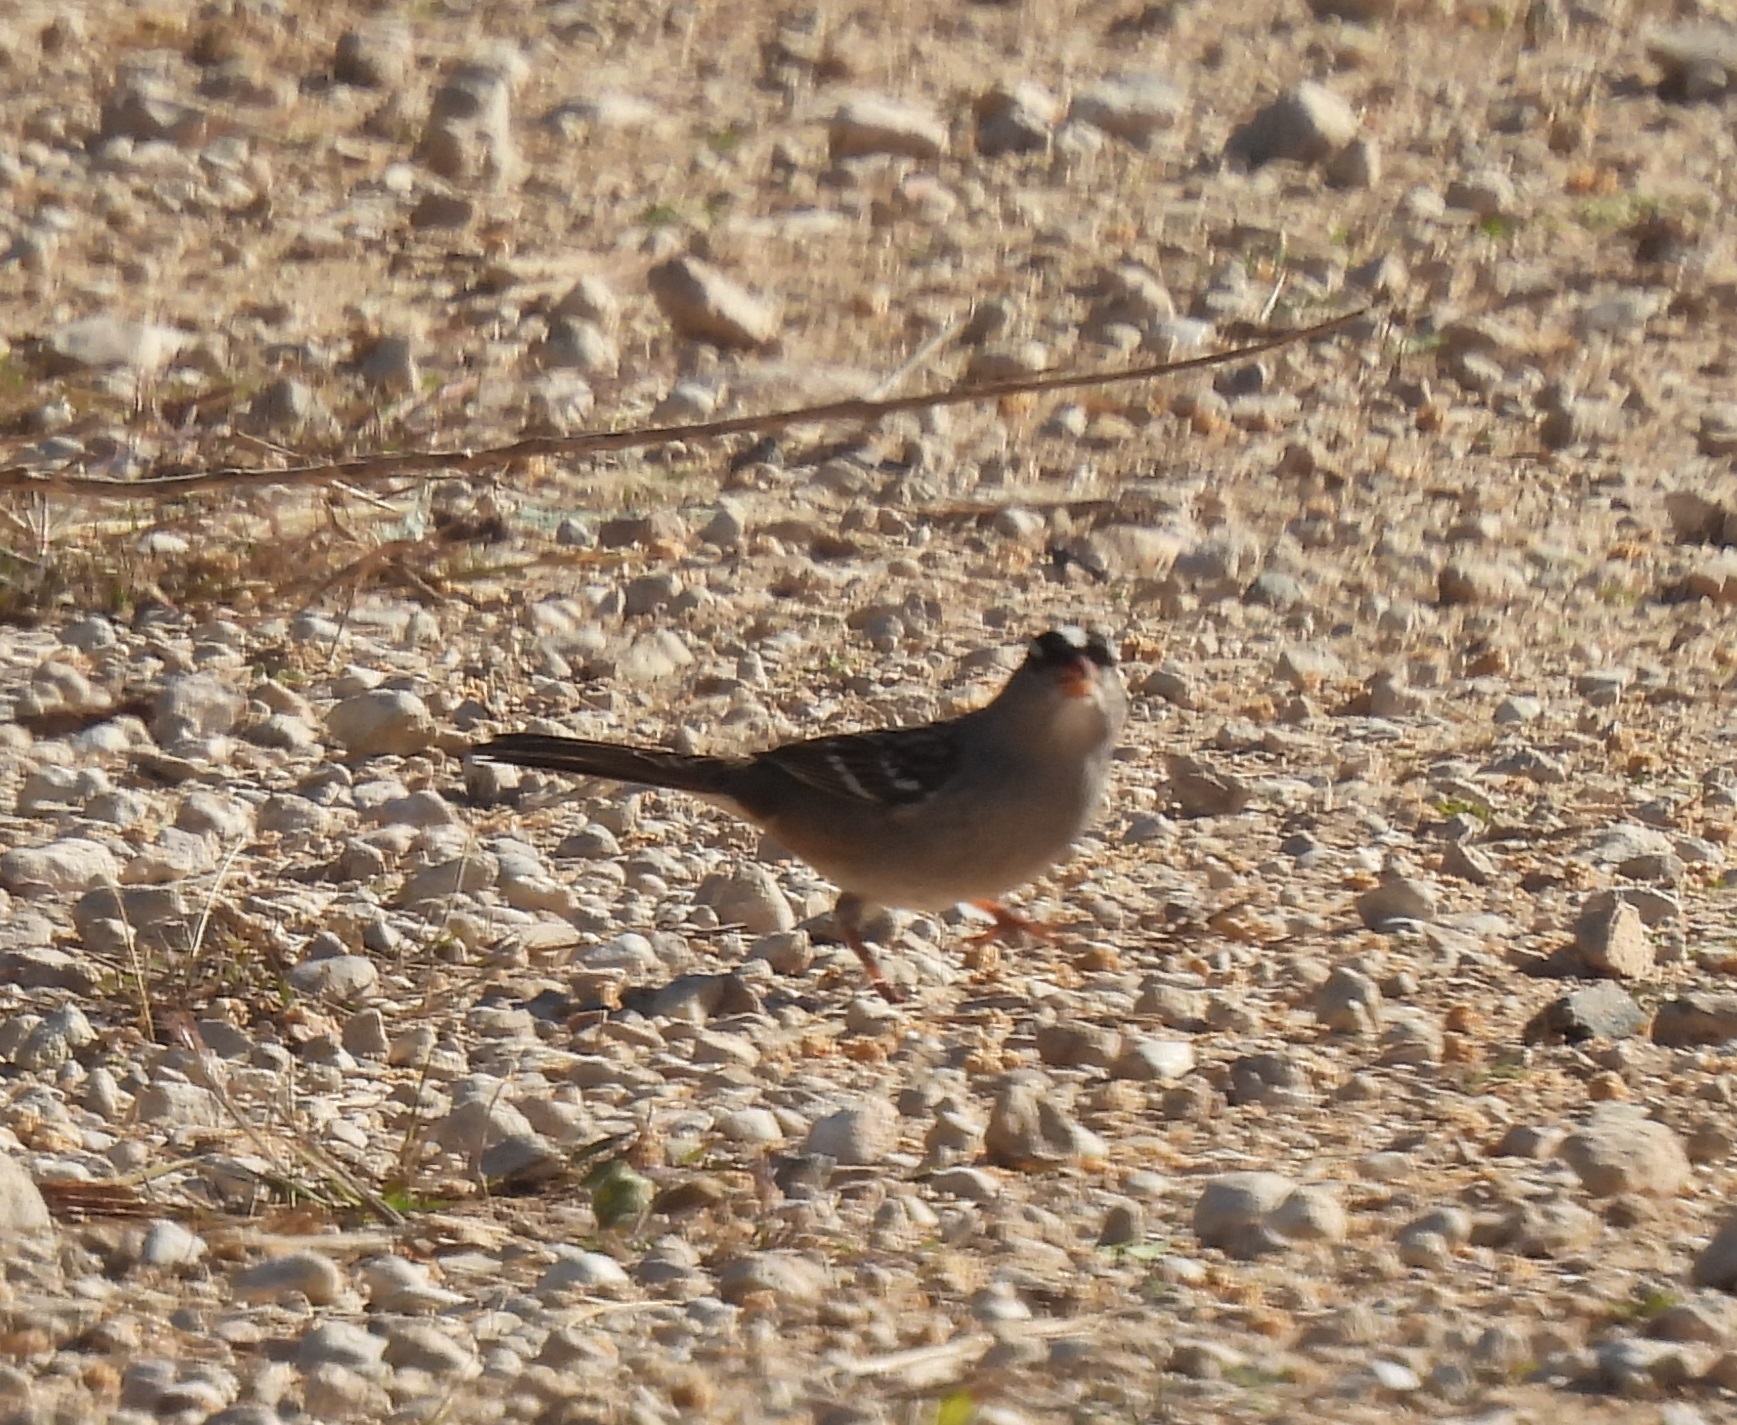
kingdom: Animalia
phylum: Chordata
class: Aves
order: Passeriformes
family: Passerellidae
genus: Zonotrichia
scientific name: Zonotrichia leucophrys
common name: White-crowned sparrow
